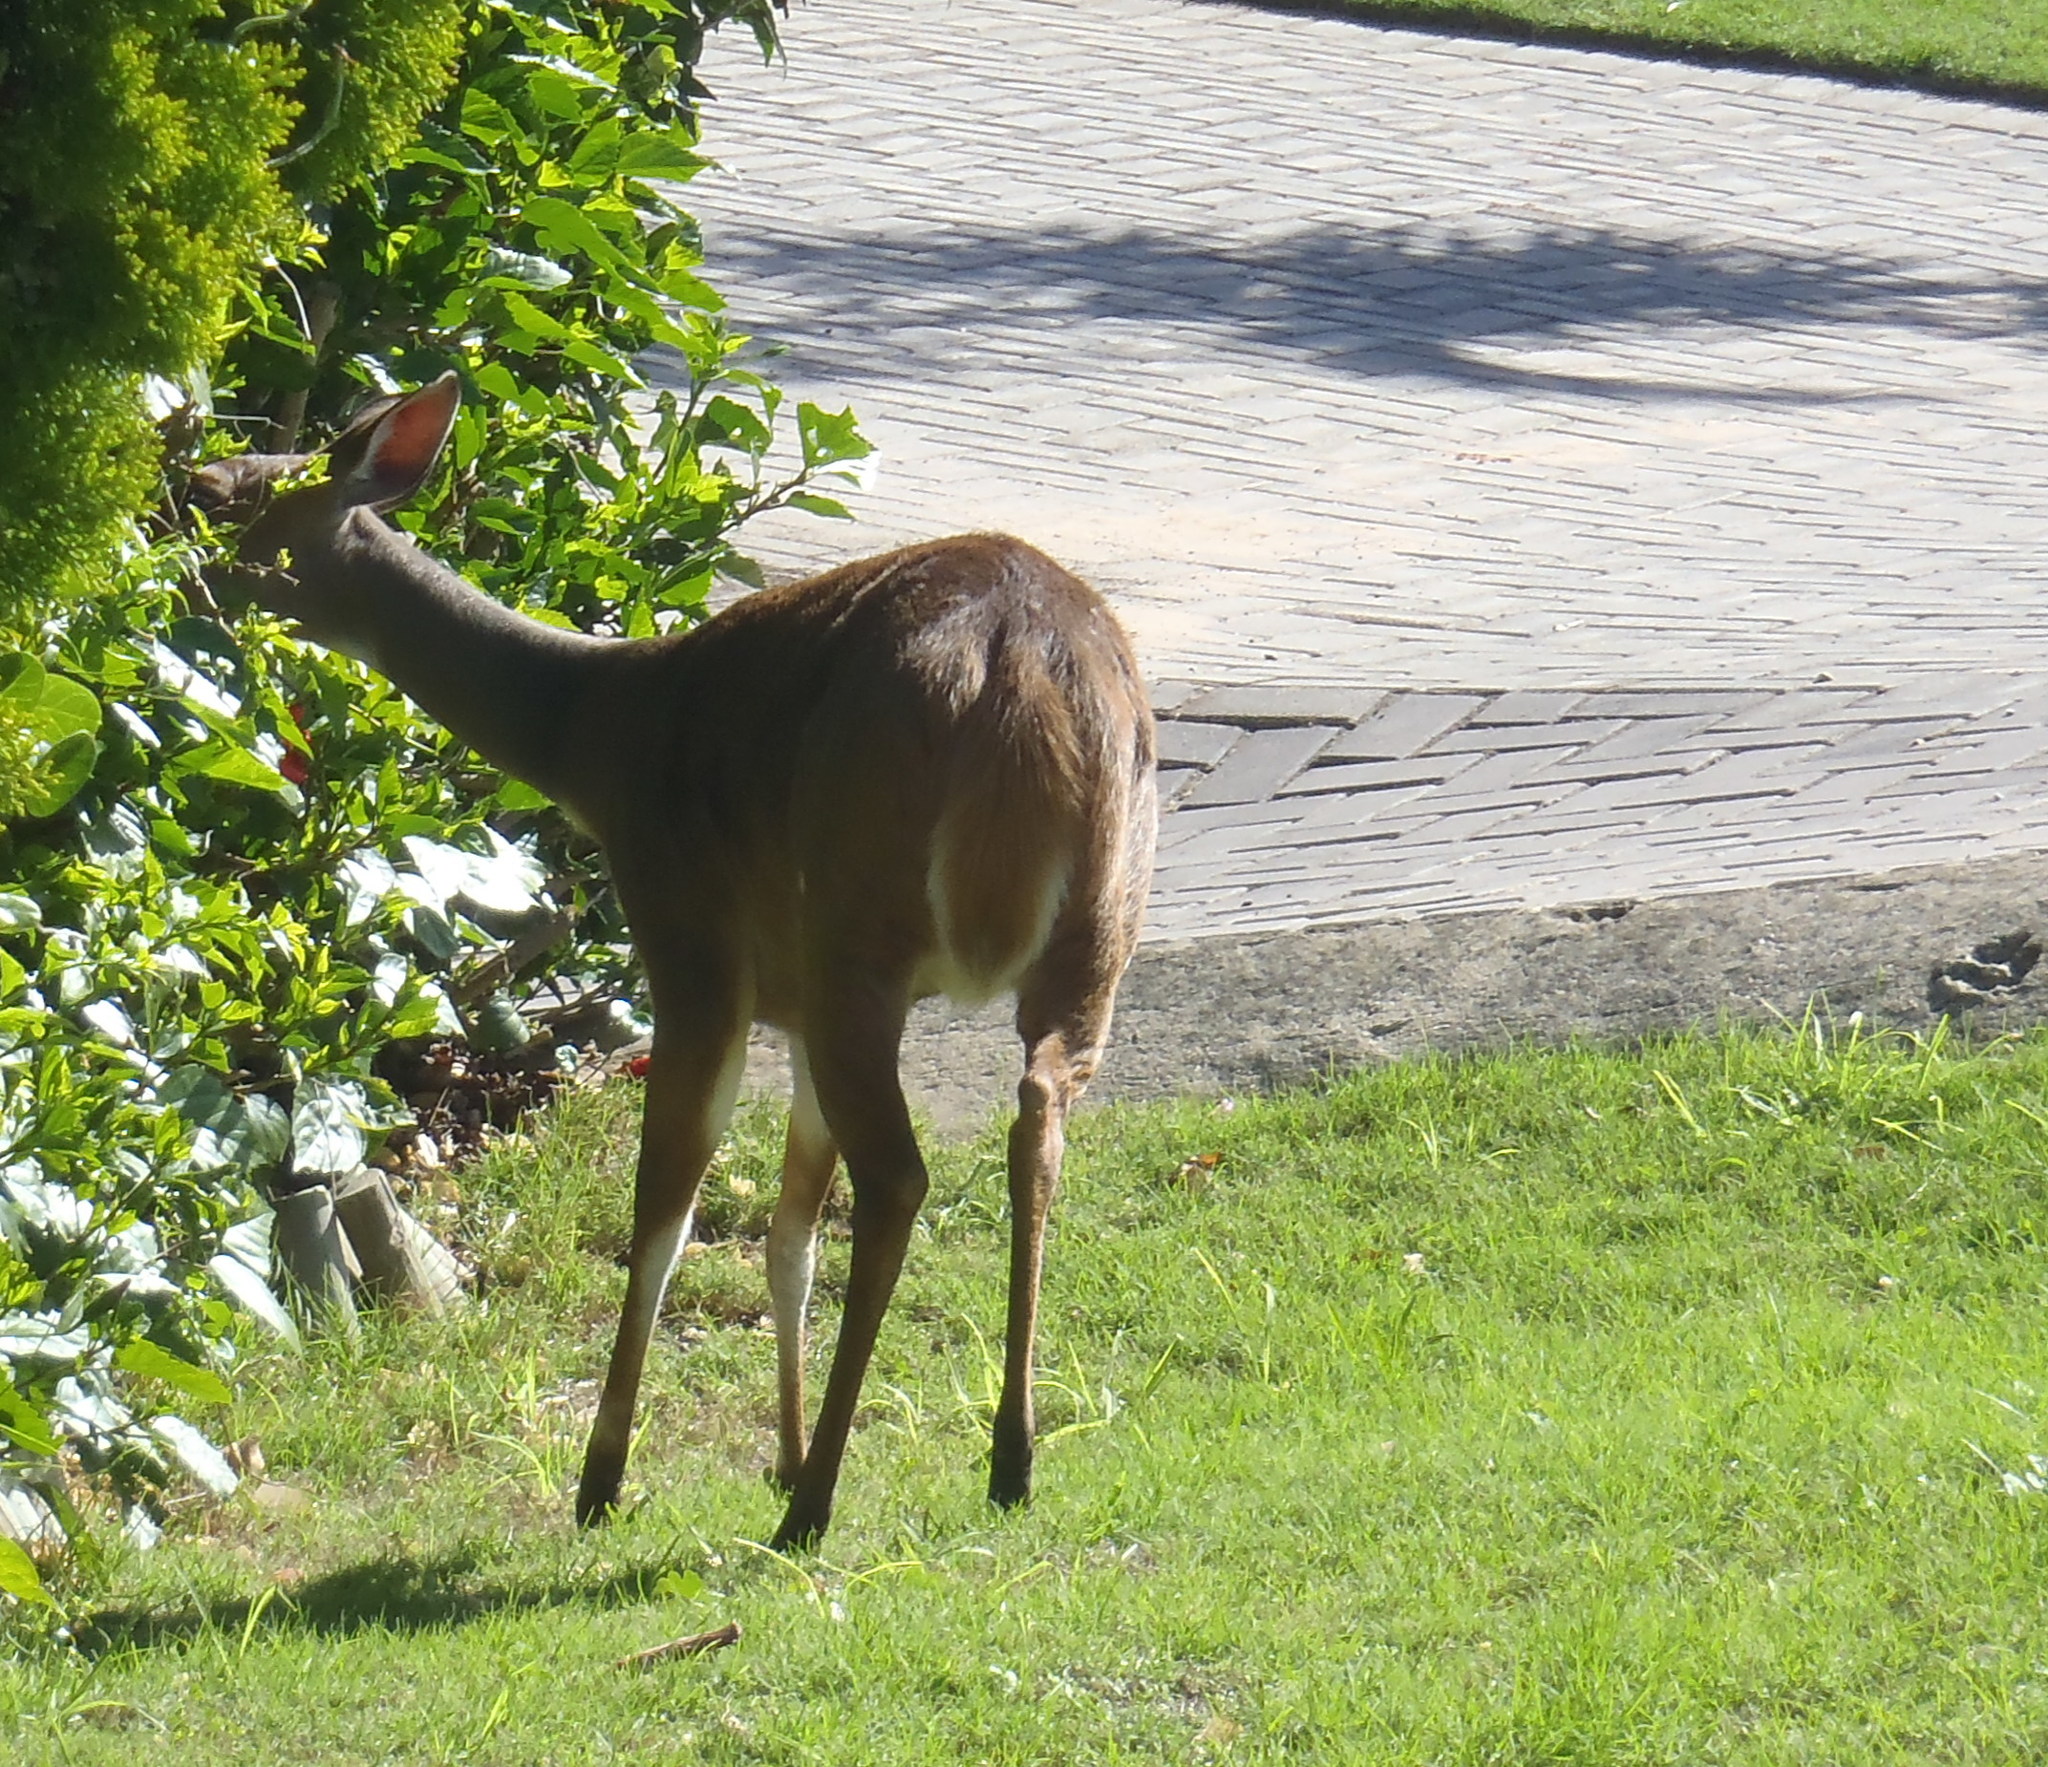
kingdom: Animalia
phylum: Chordata
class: Mammalia
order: Artiodactyla
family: Bovidae
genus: Tragelaphus
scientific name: Tragelaphus scriptus
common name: Bushbuck
